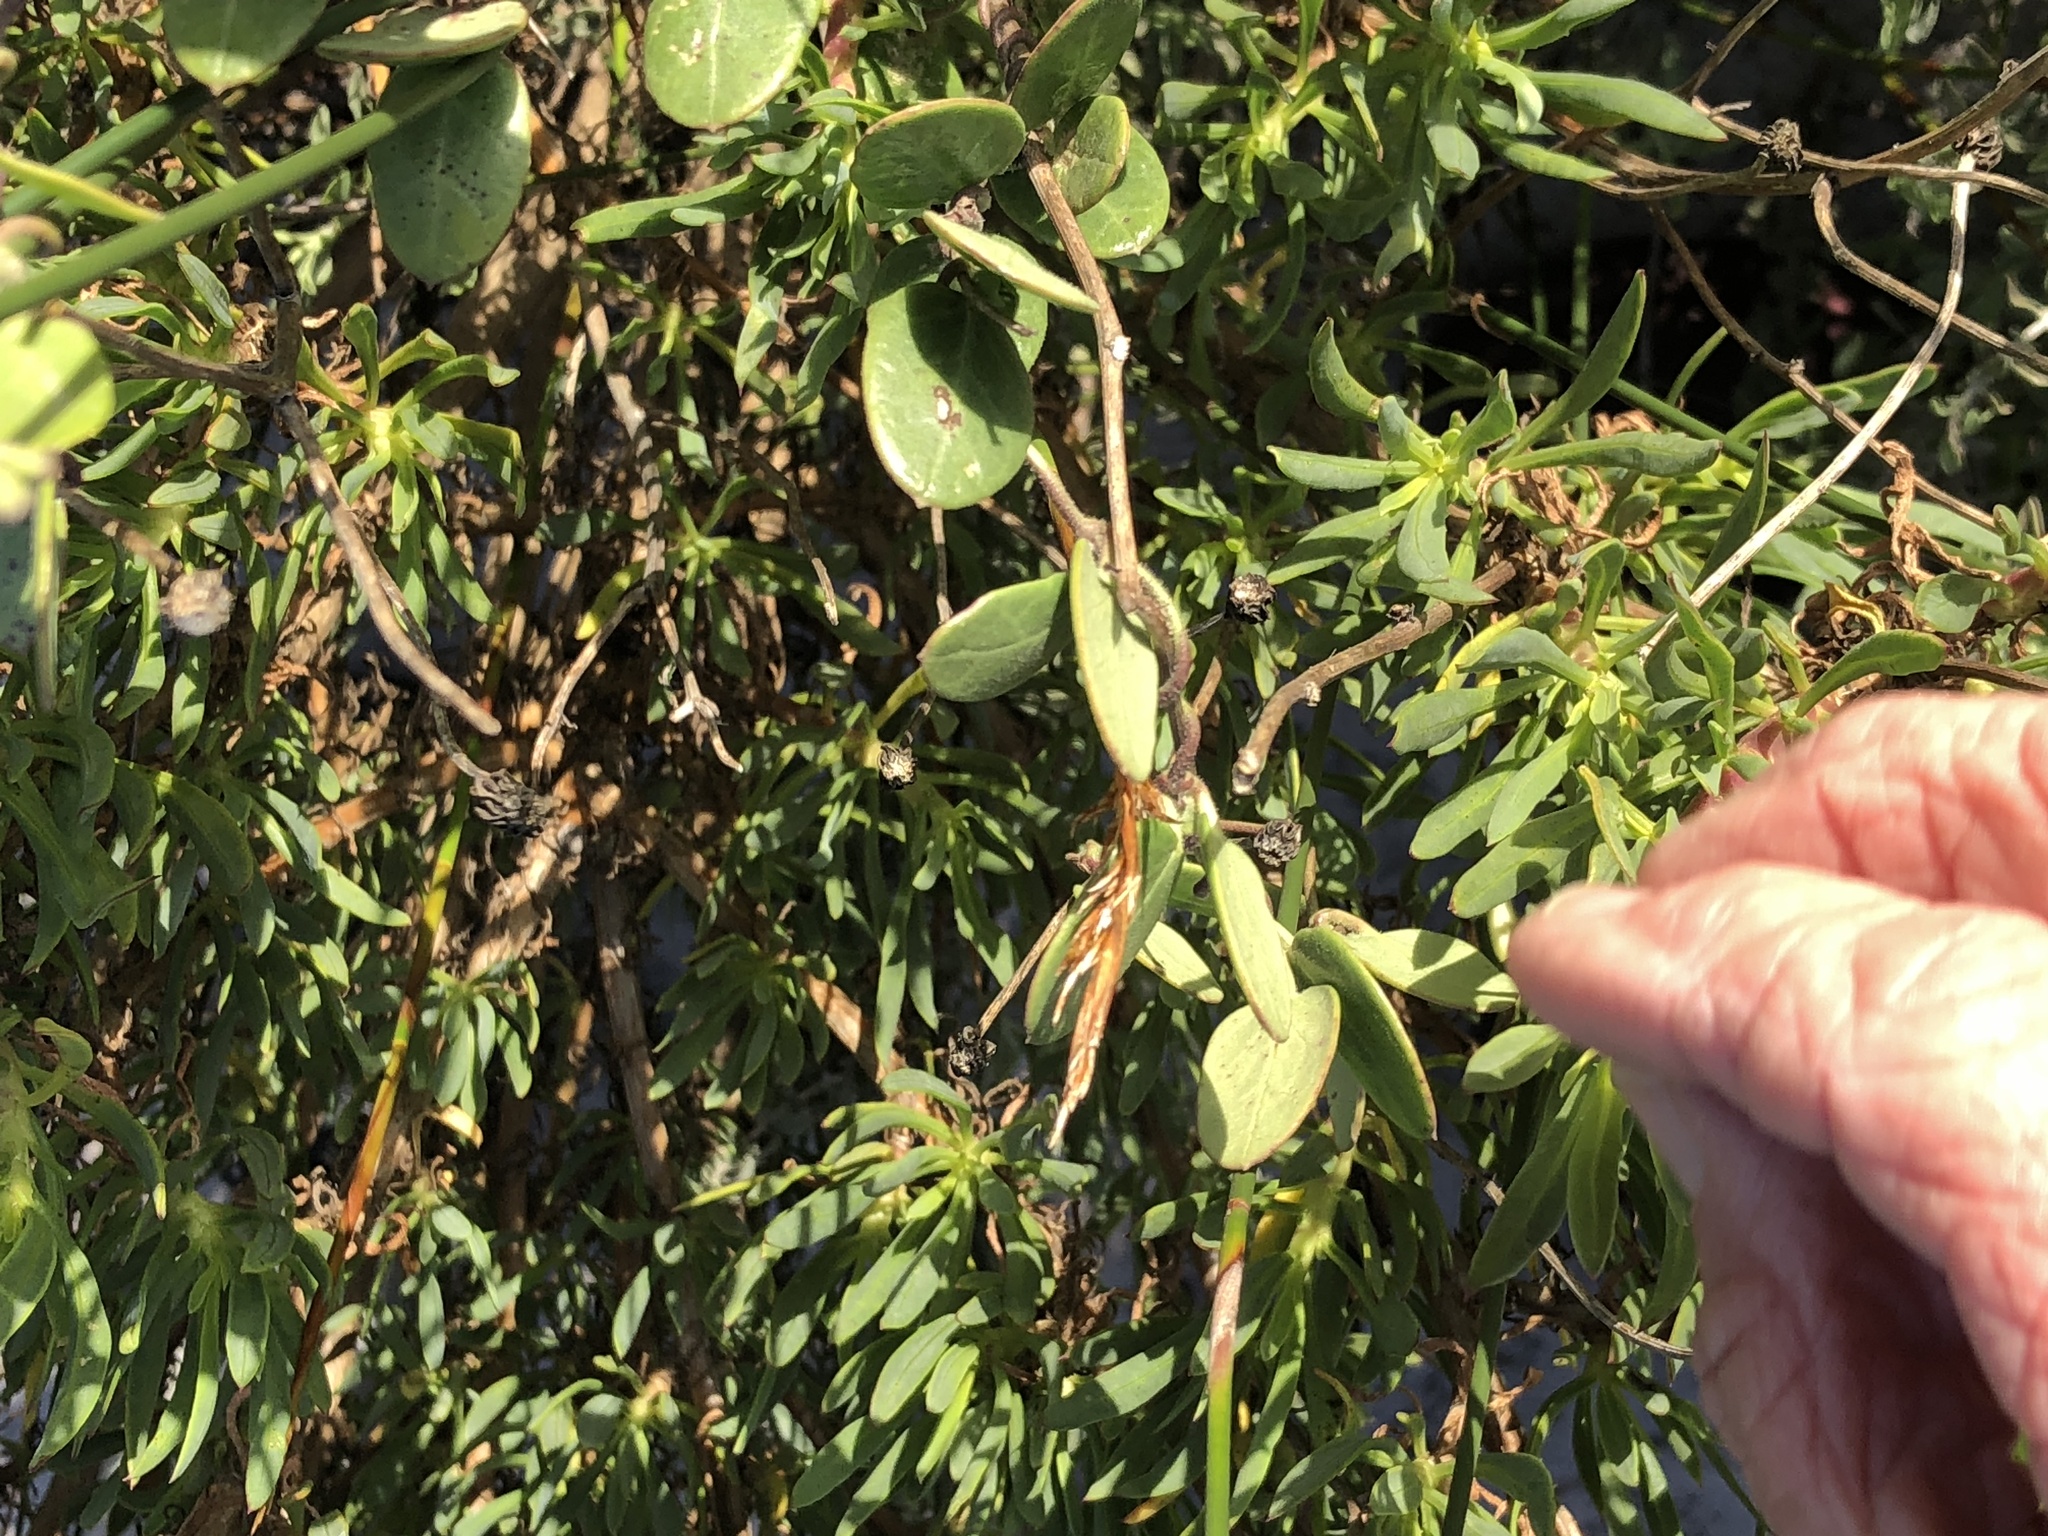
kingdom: Plantae
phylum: Tracheophyta
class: Magnoliopsida
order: Ranunculales
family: Menispermaceae
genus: Cissampelos
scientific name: Cissampelos capensis
